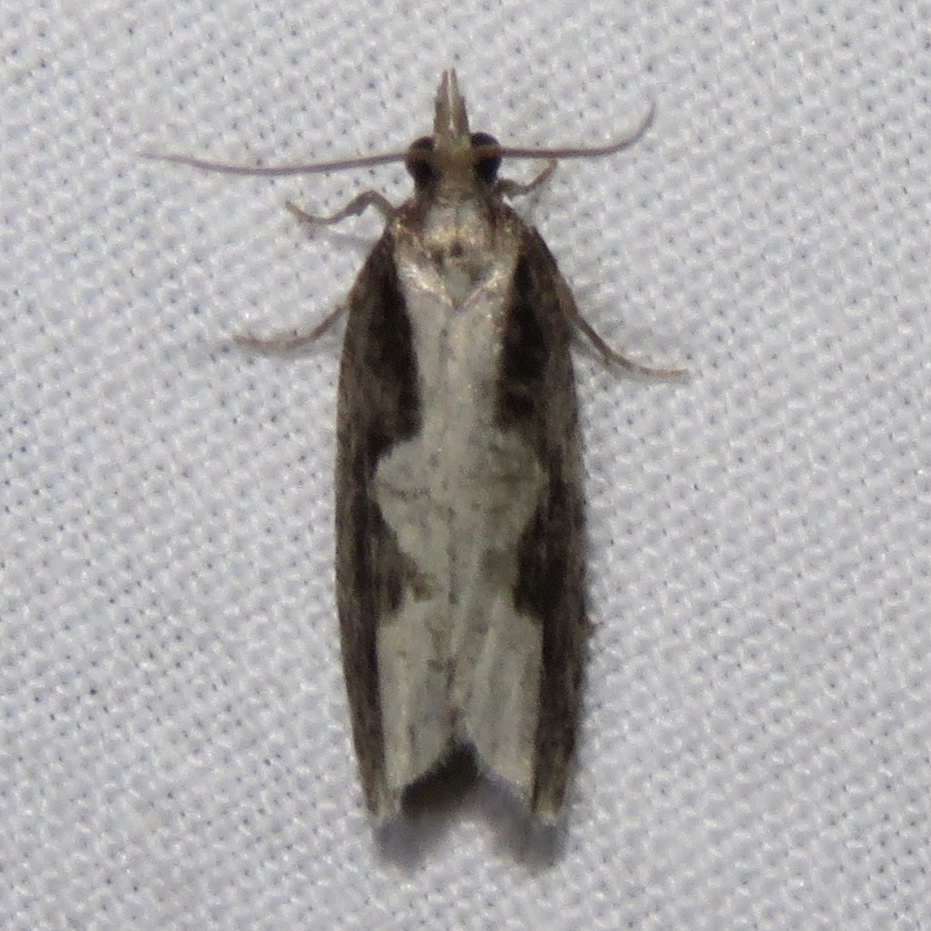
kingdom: Animalia
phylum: Arthropoda
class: Insecta
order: Lepidoptera
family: Tortricidae
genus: Epinotia
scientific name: Epinotia lindana
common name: Diamondback epinotia moth
